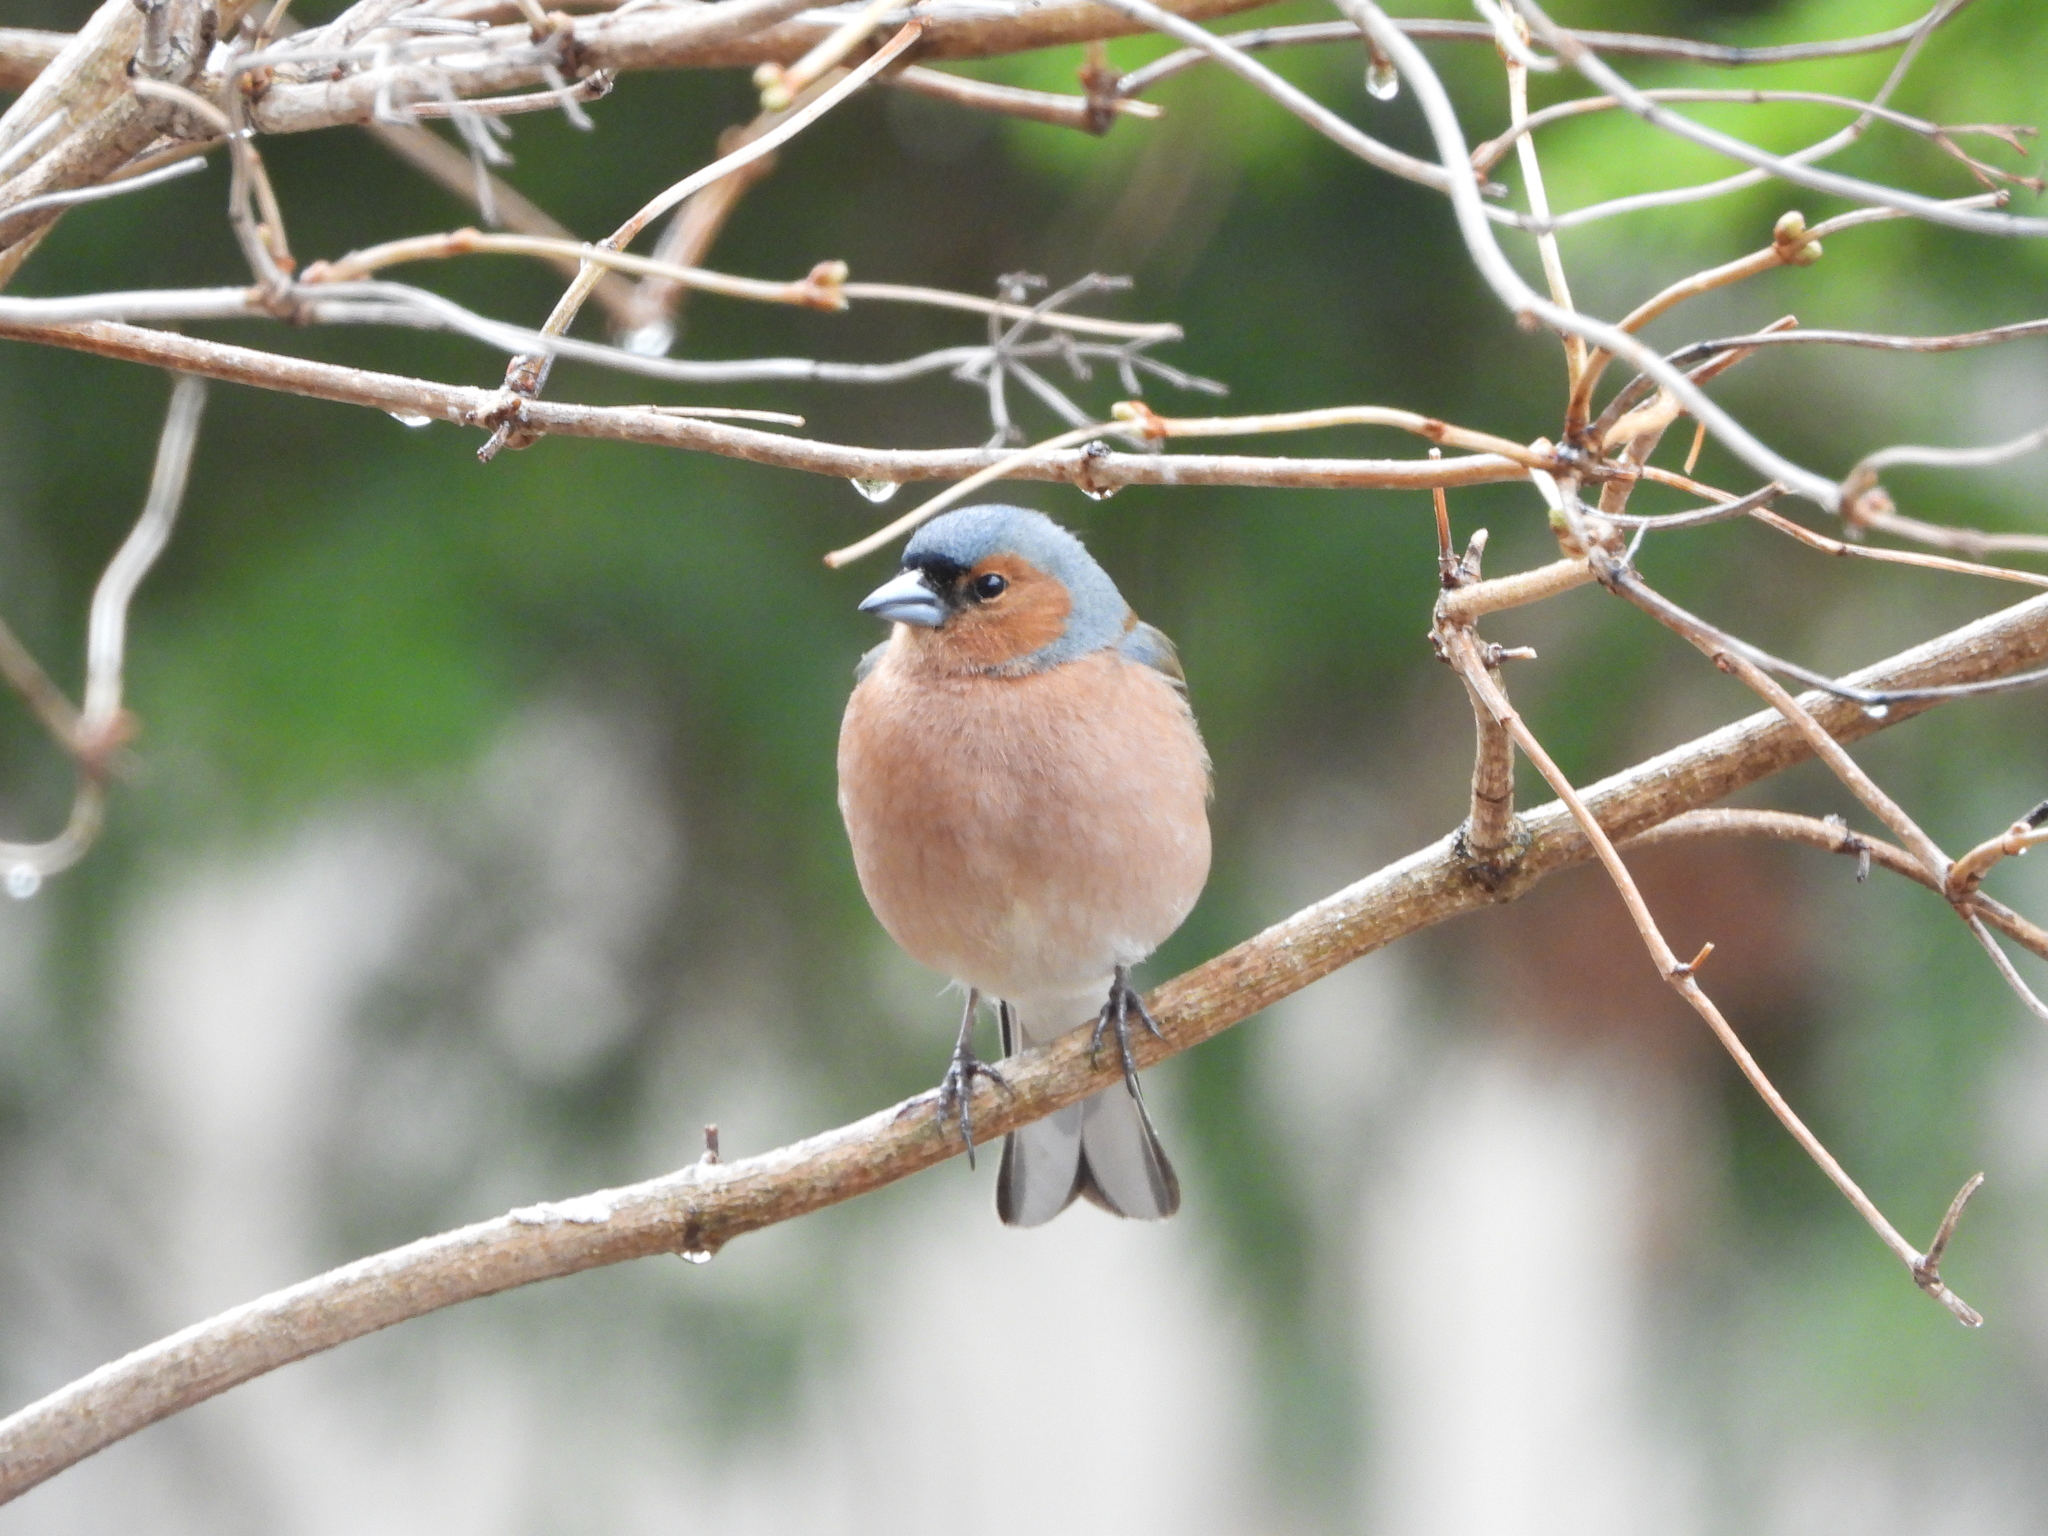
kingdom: Animalia
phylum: Chordata
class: Aves
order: Passeriformes
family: Fringillidae
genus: Fringilla
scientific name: Fringilla coelebs
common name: Common chaffinch
